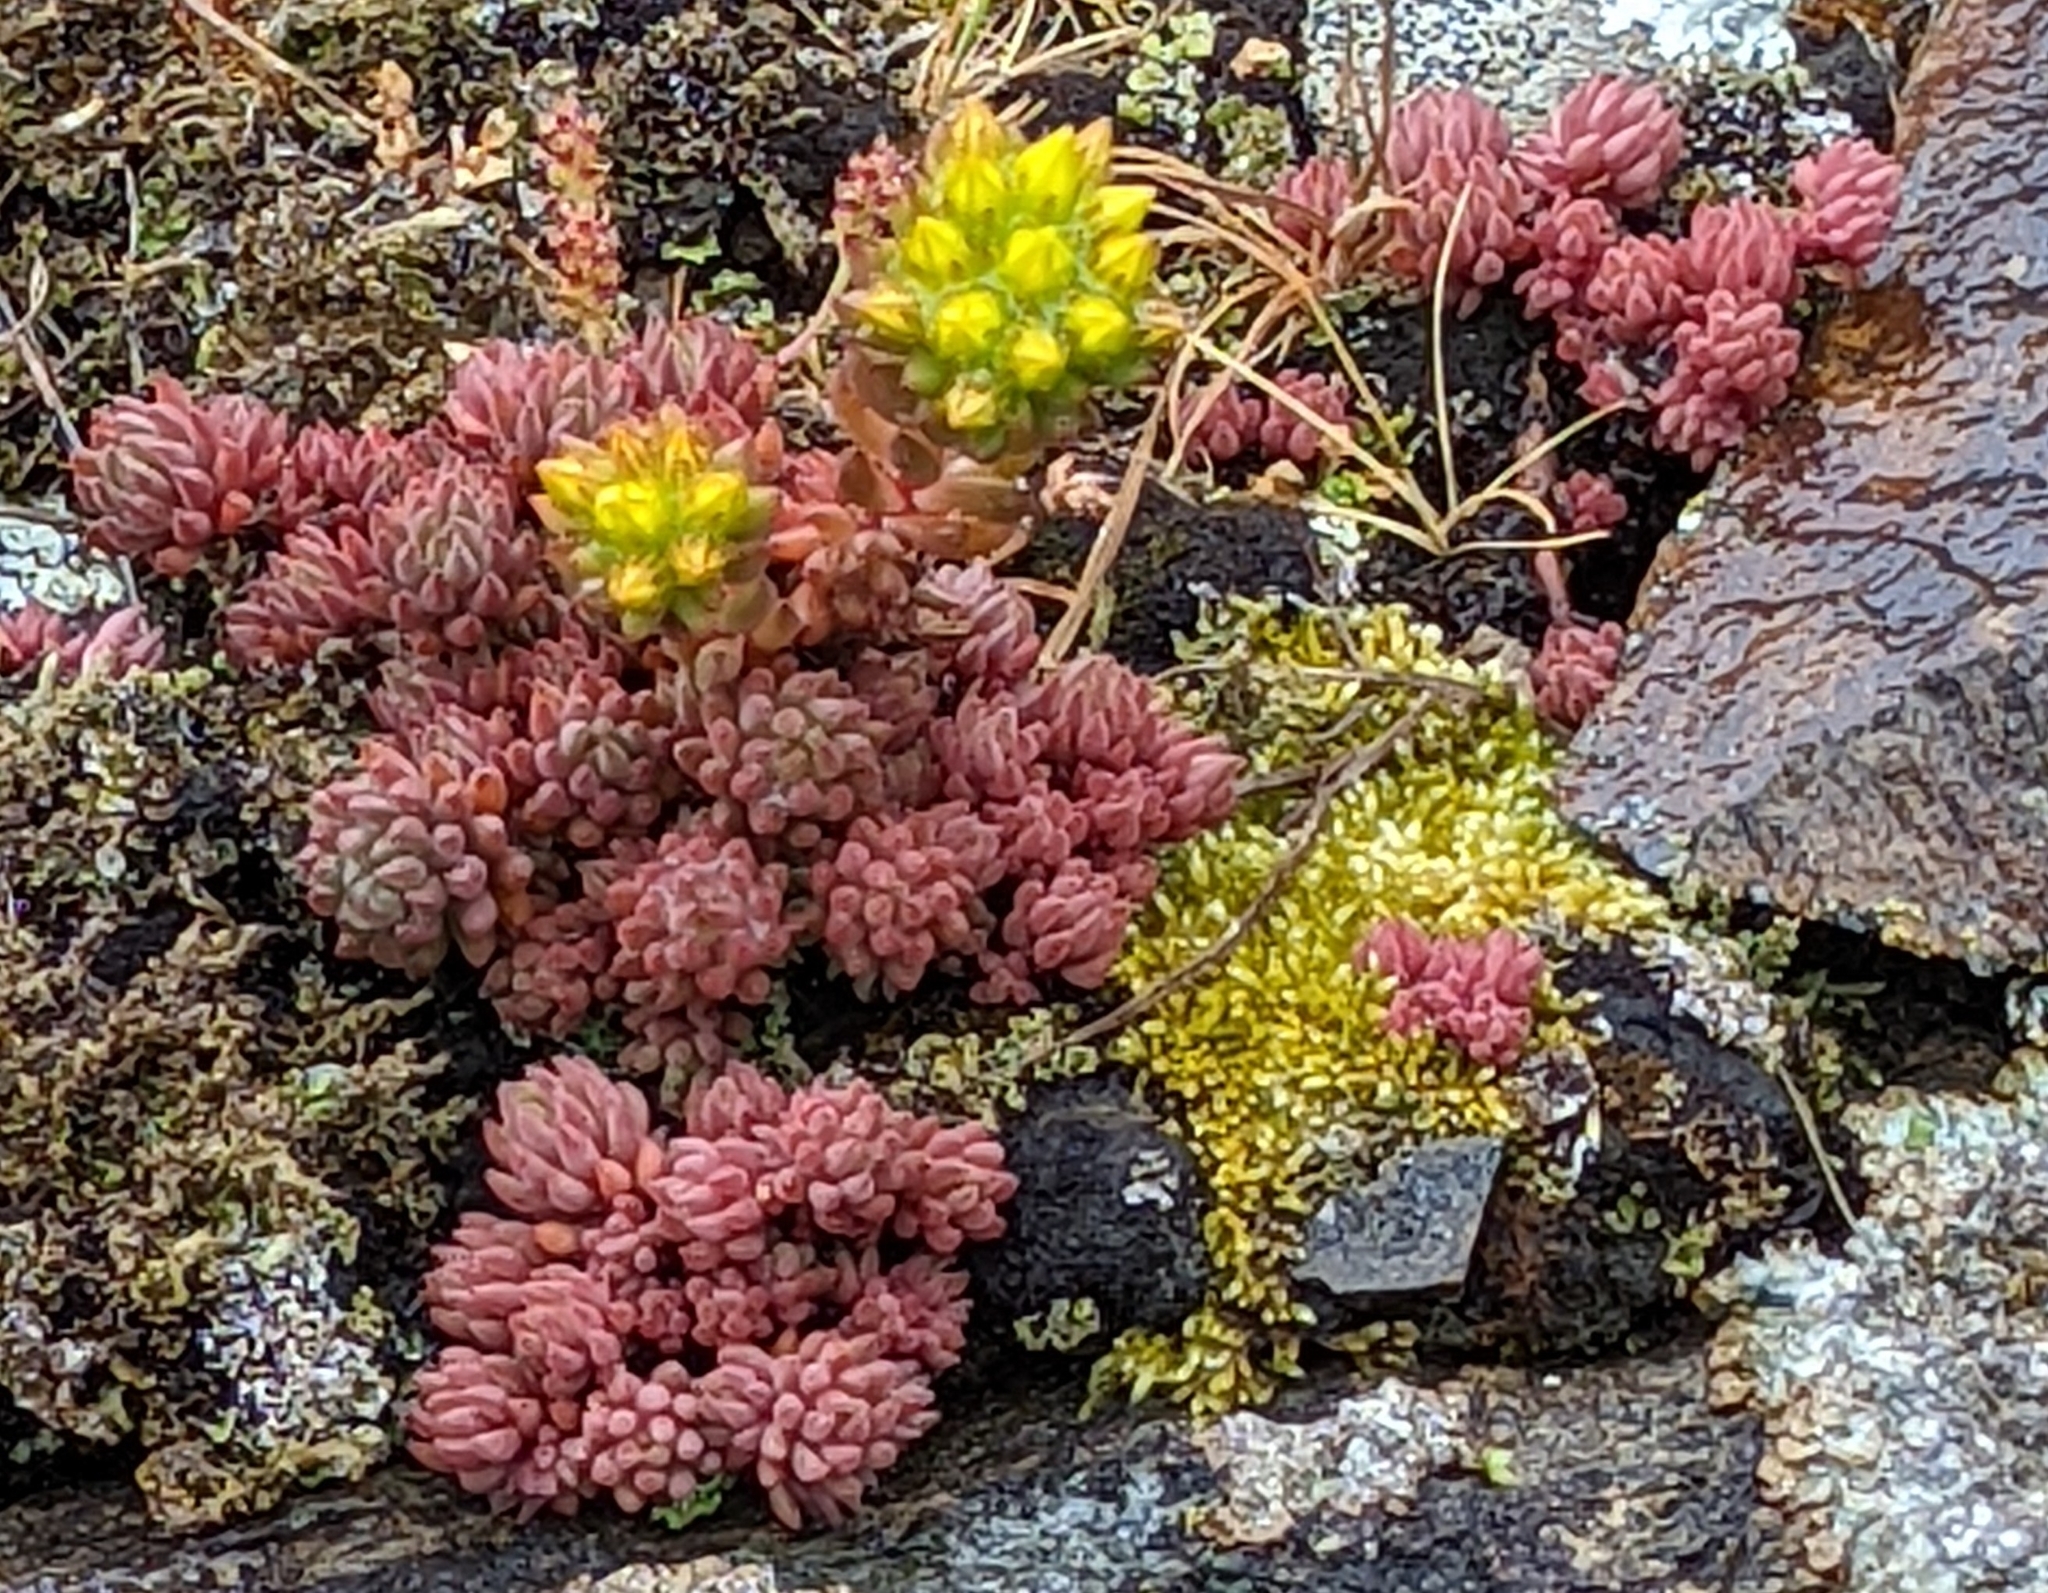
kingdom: Plantae
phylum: Tracheophyta
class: Magnoliopsida
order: Saxifragales
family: Crassulaceae
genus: Sedum
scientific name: Sedum lanceolatum
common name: Common stonecrop
